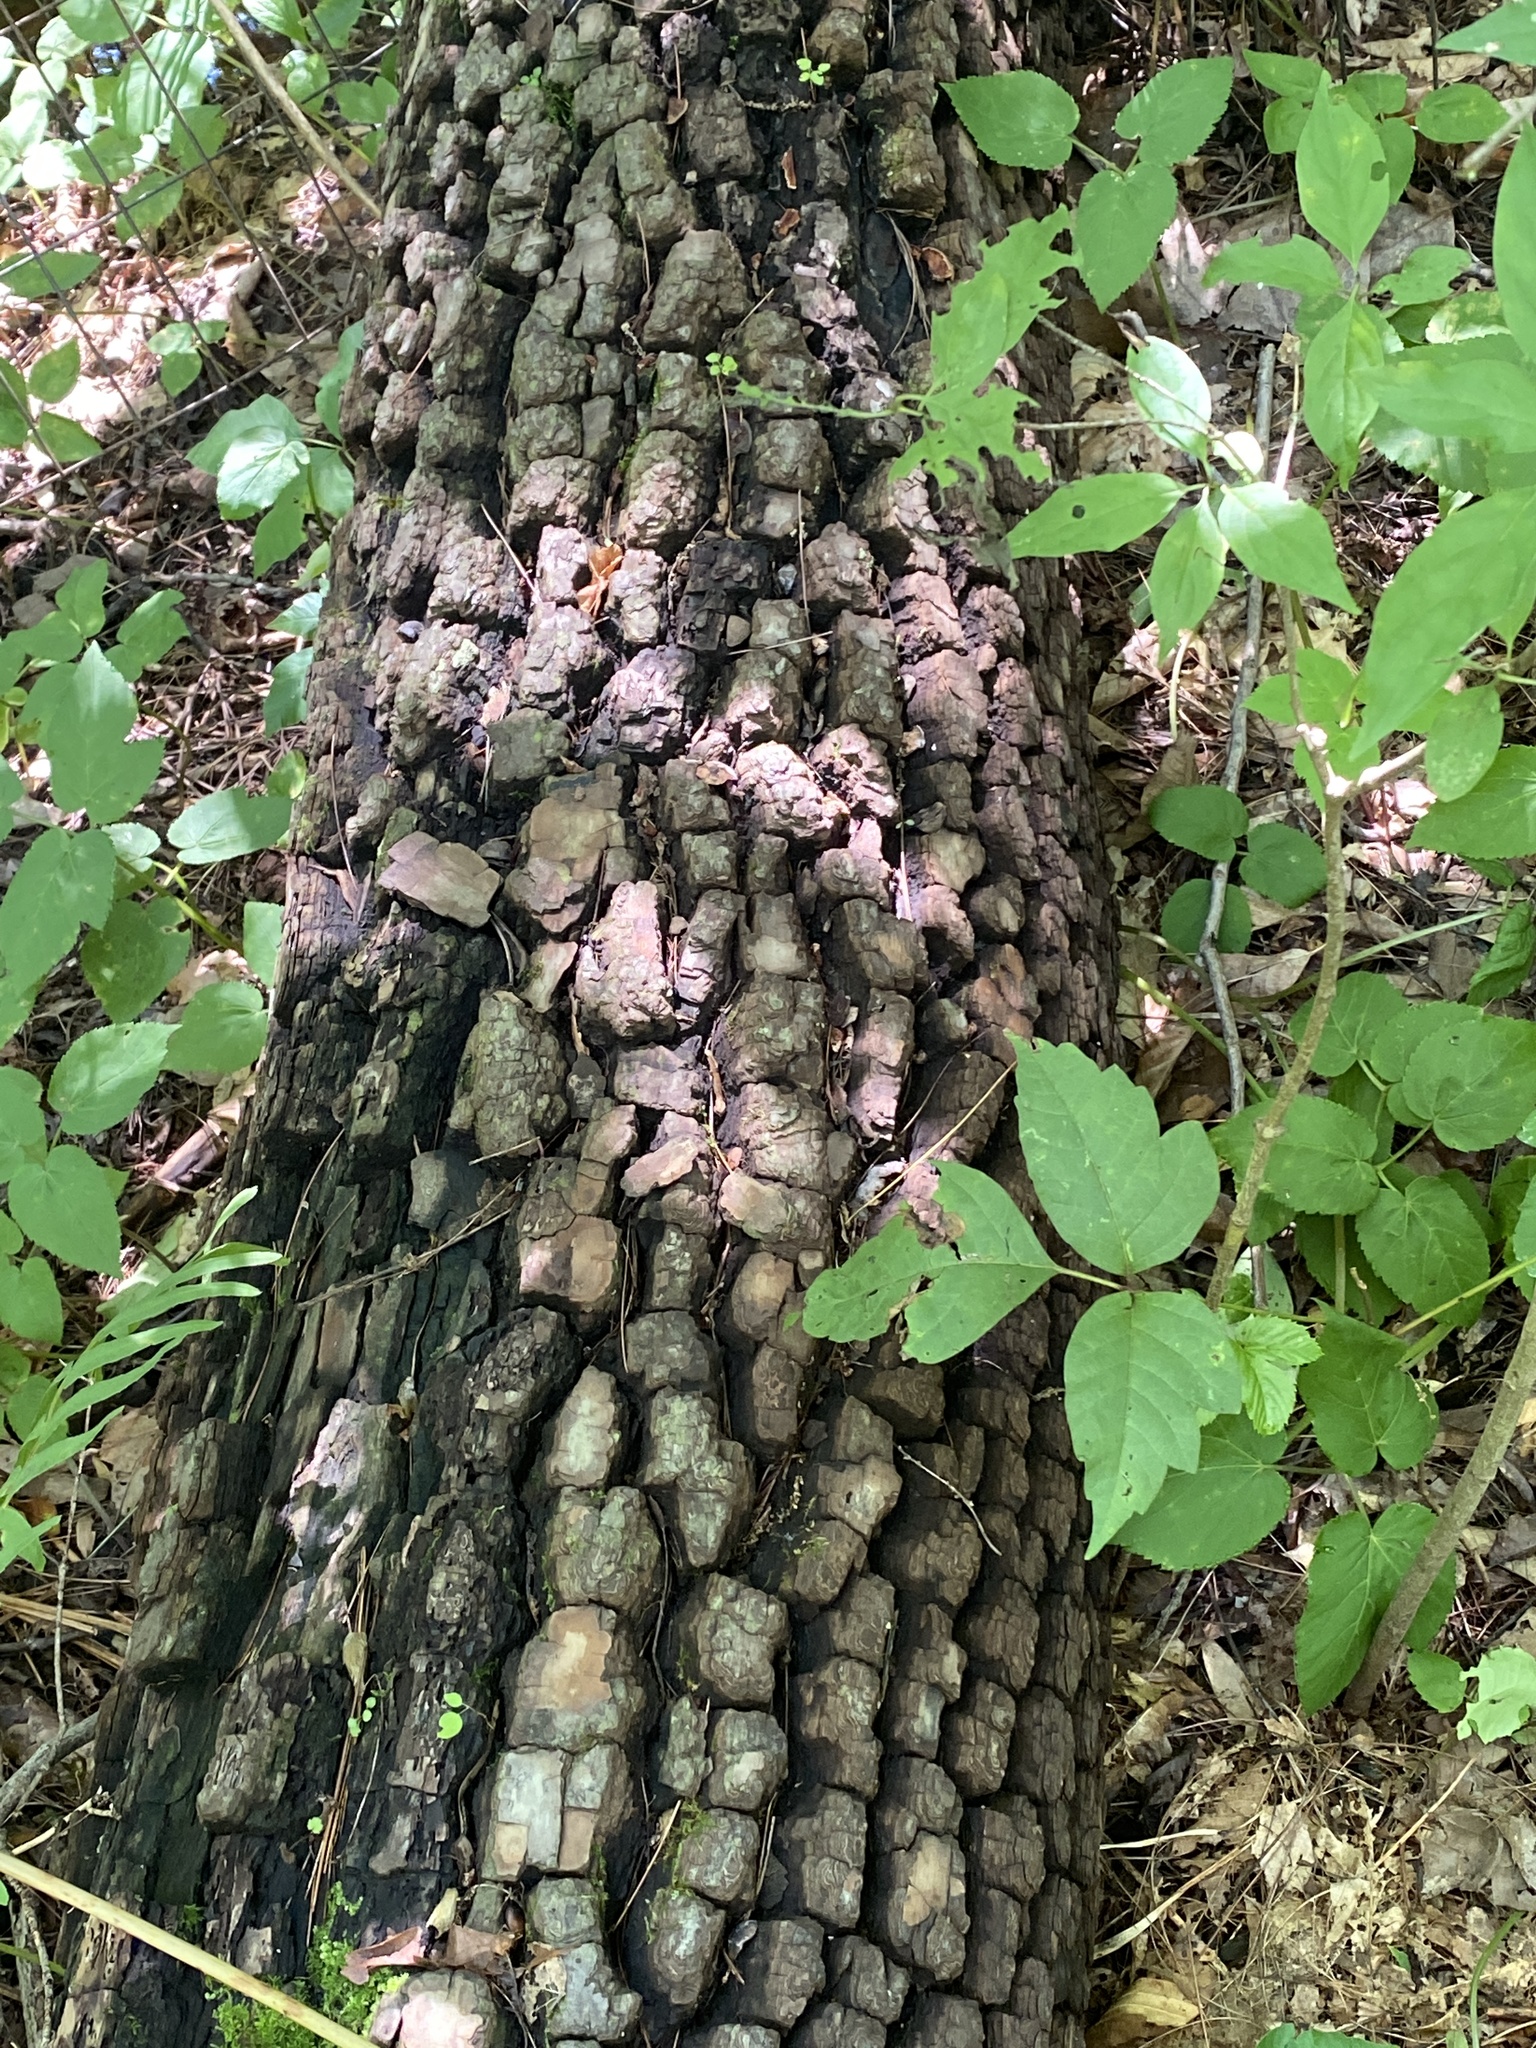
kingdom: Plantae
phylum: Tracheophyta
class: Magnoliopsida
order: Ericales
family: Ebenaceae
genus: Diospyros
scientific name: Diospyros virginiana
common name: Persimmon
